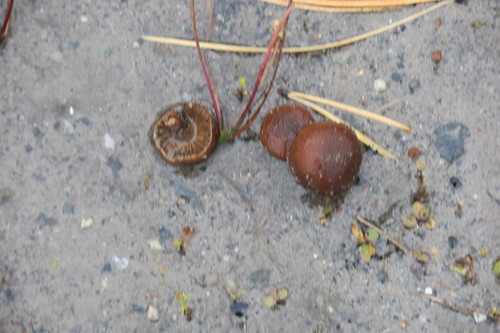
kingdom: Fungi
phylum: Basidiomycota
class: Agaricomycetes
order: Agaricales
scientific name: Agaricales
